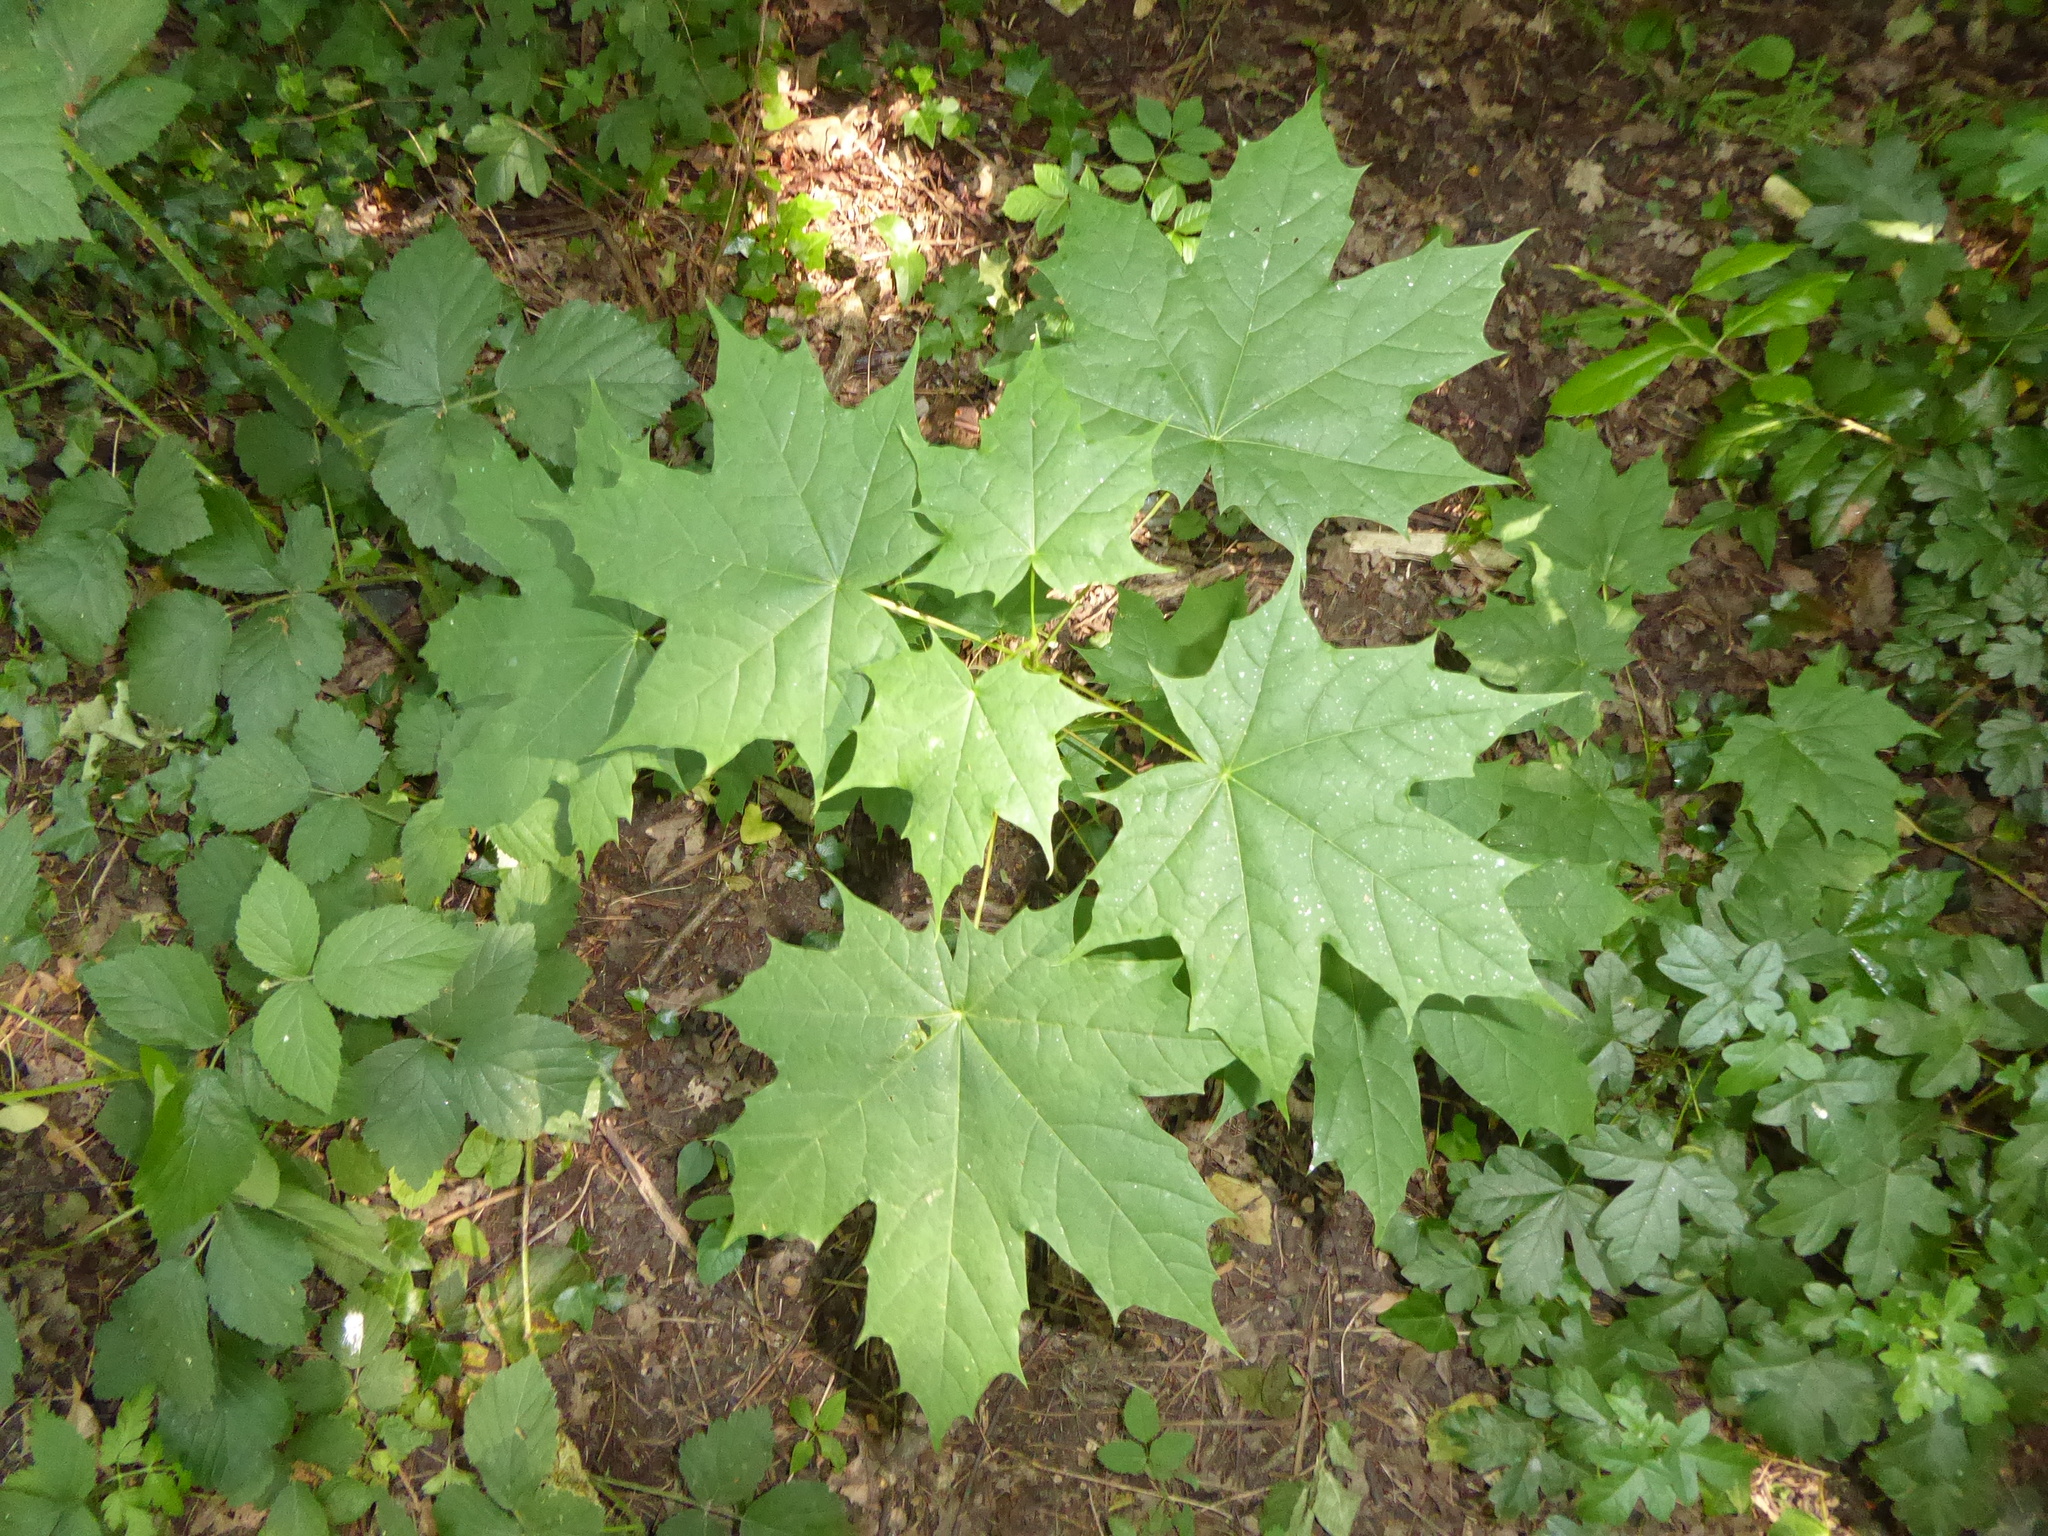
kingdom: Plantae
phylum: Tracheophyta
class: Magnoliopsida
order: Sapindales
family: Sapindaceae
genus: Acer
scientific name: Acer platanoides
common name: Norway maple
